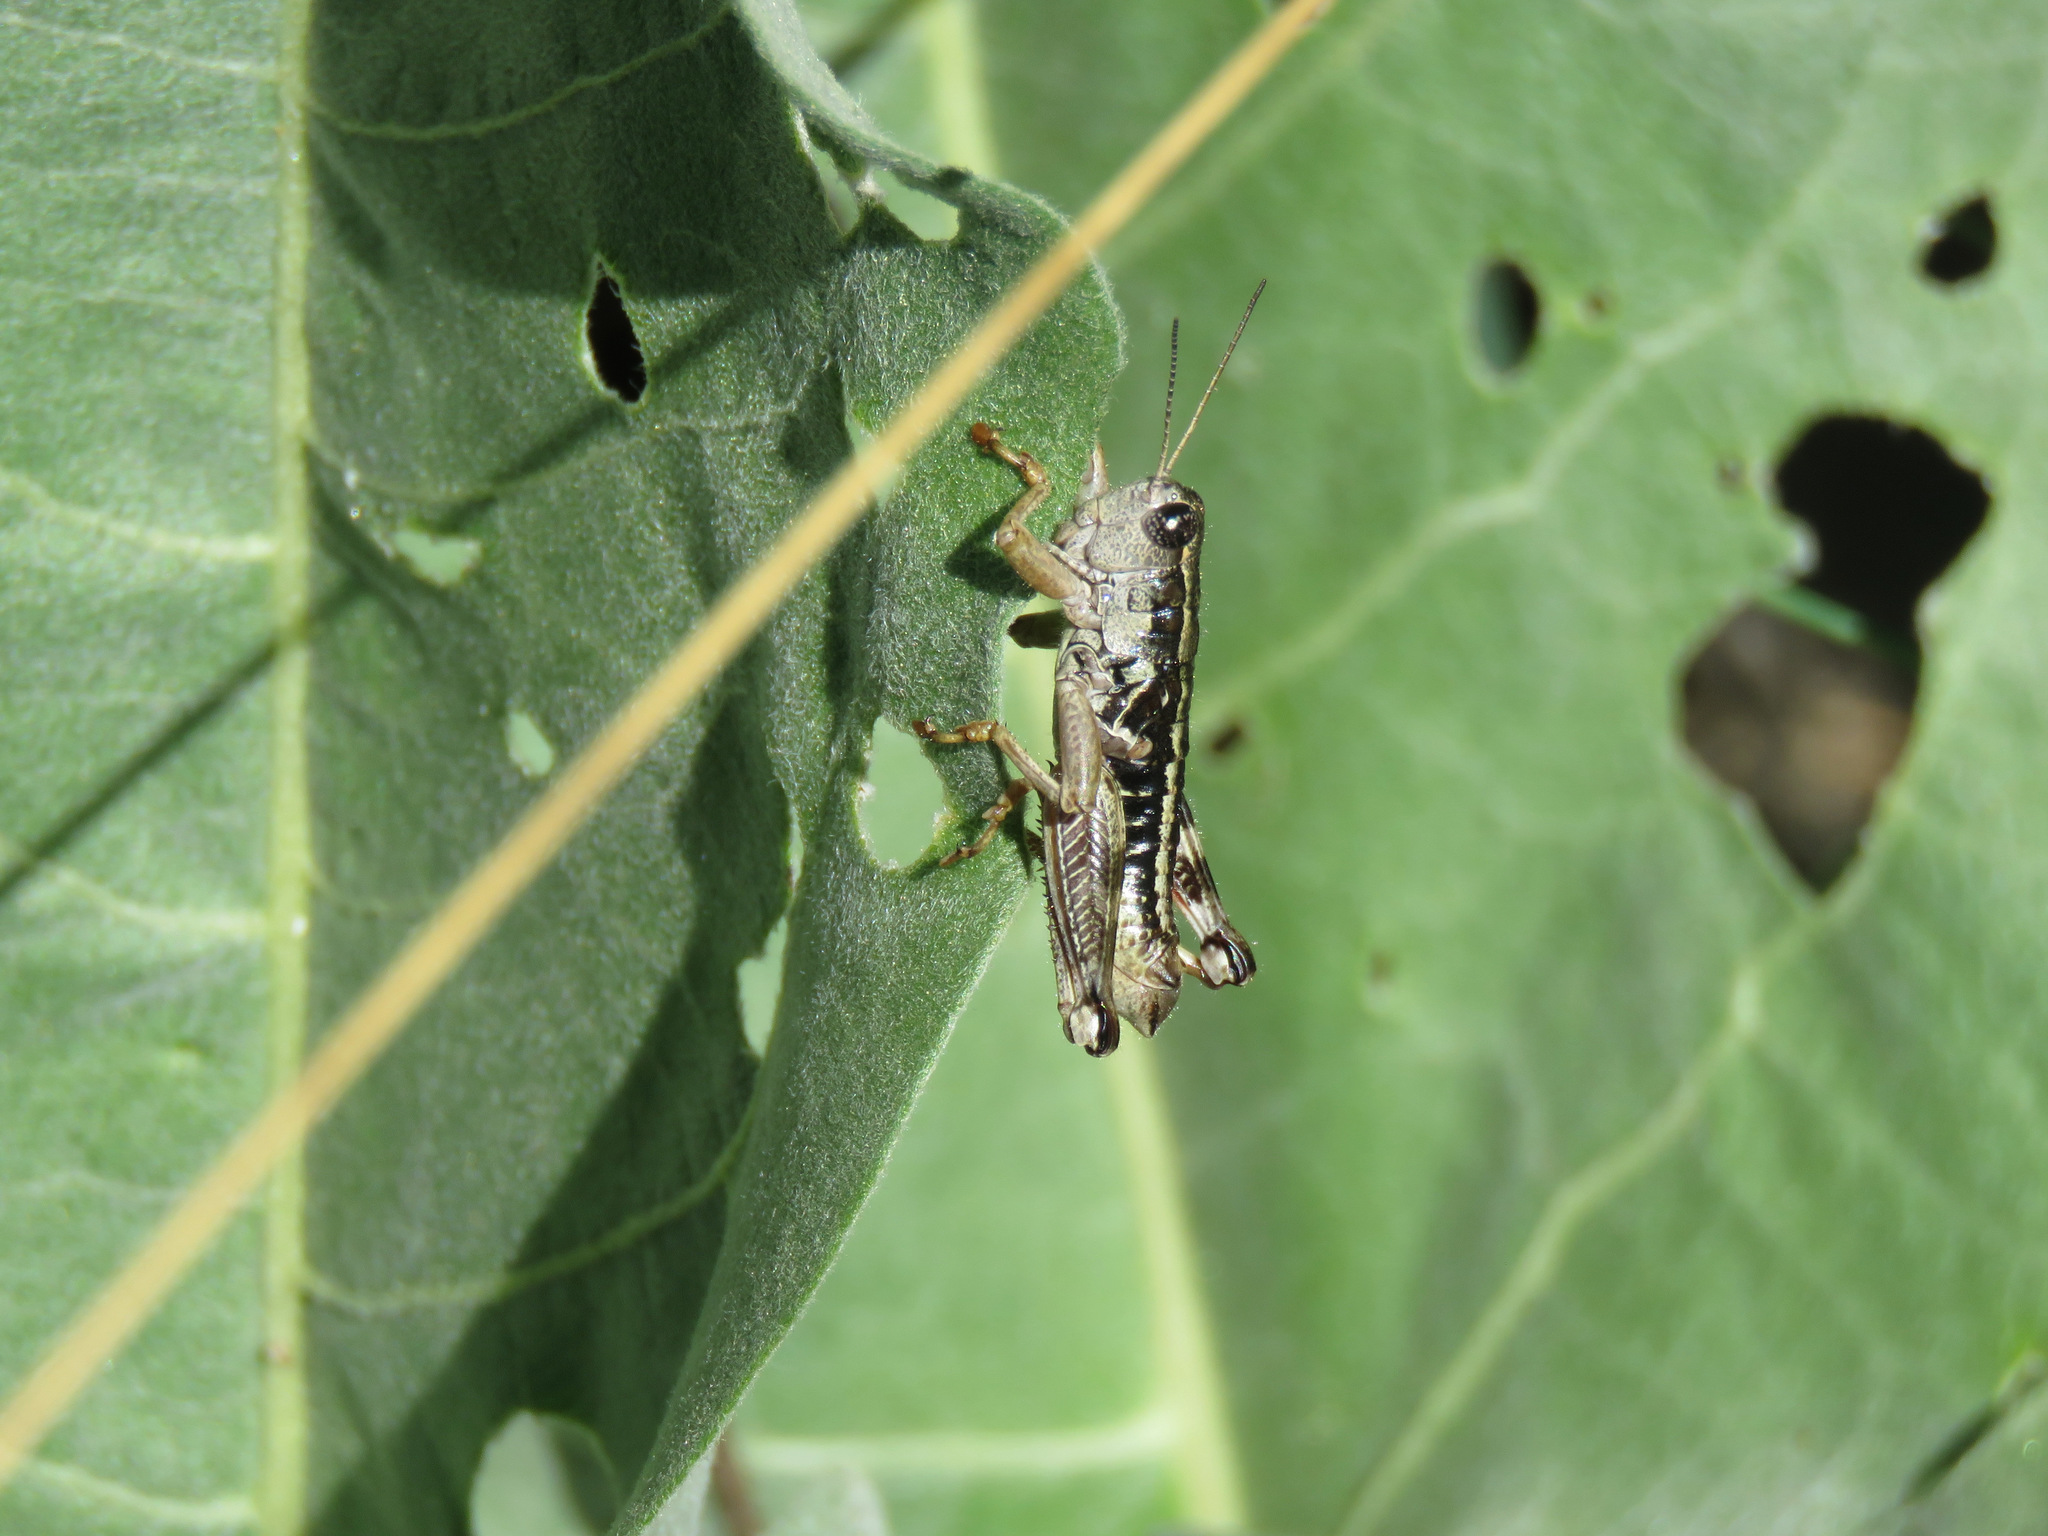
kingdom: Animalia
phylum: Arthropoda
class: Insecta
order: Orthoptera
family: Acrididae
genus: Buckellacris
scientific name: Buckellacris chilcotinae
